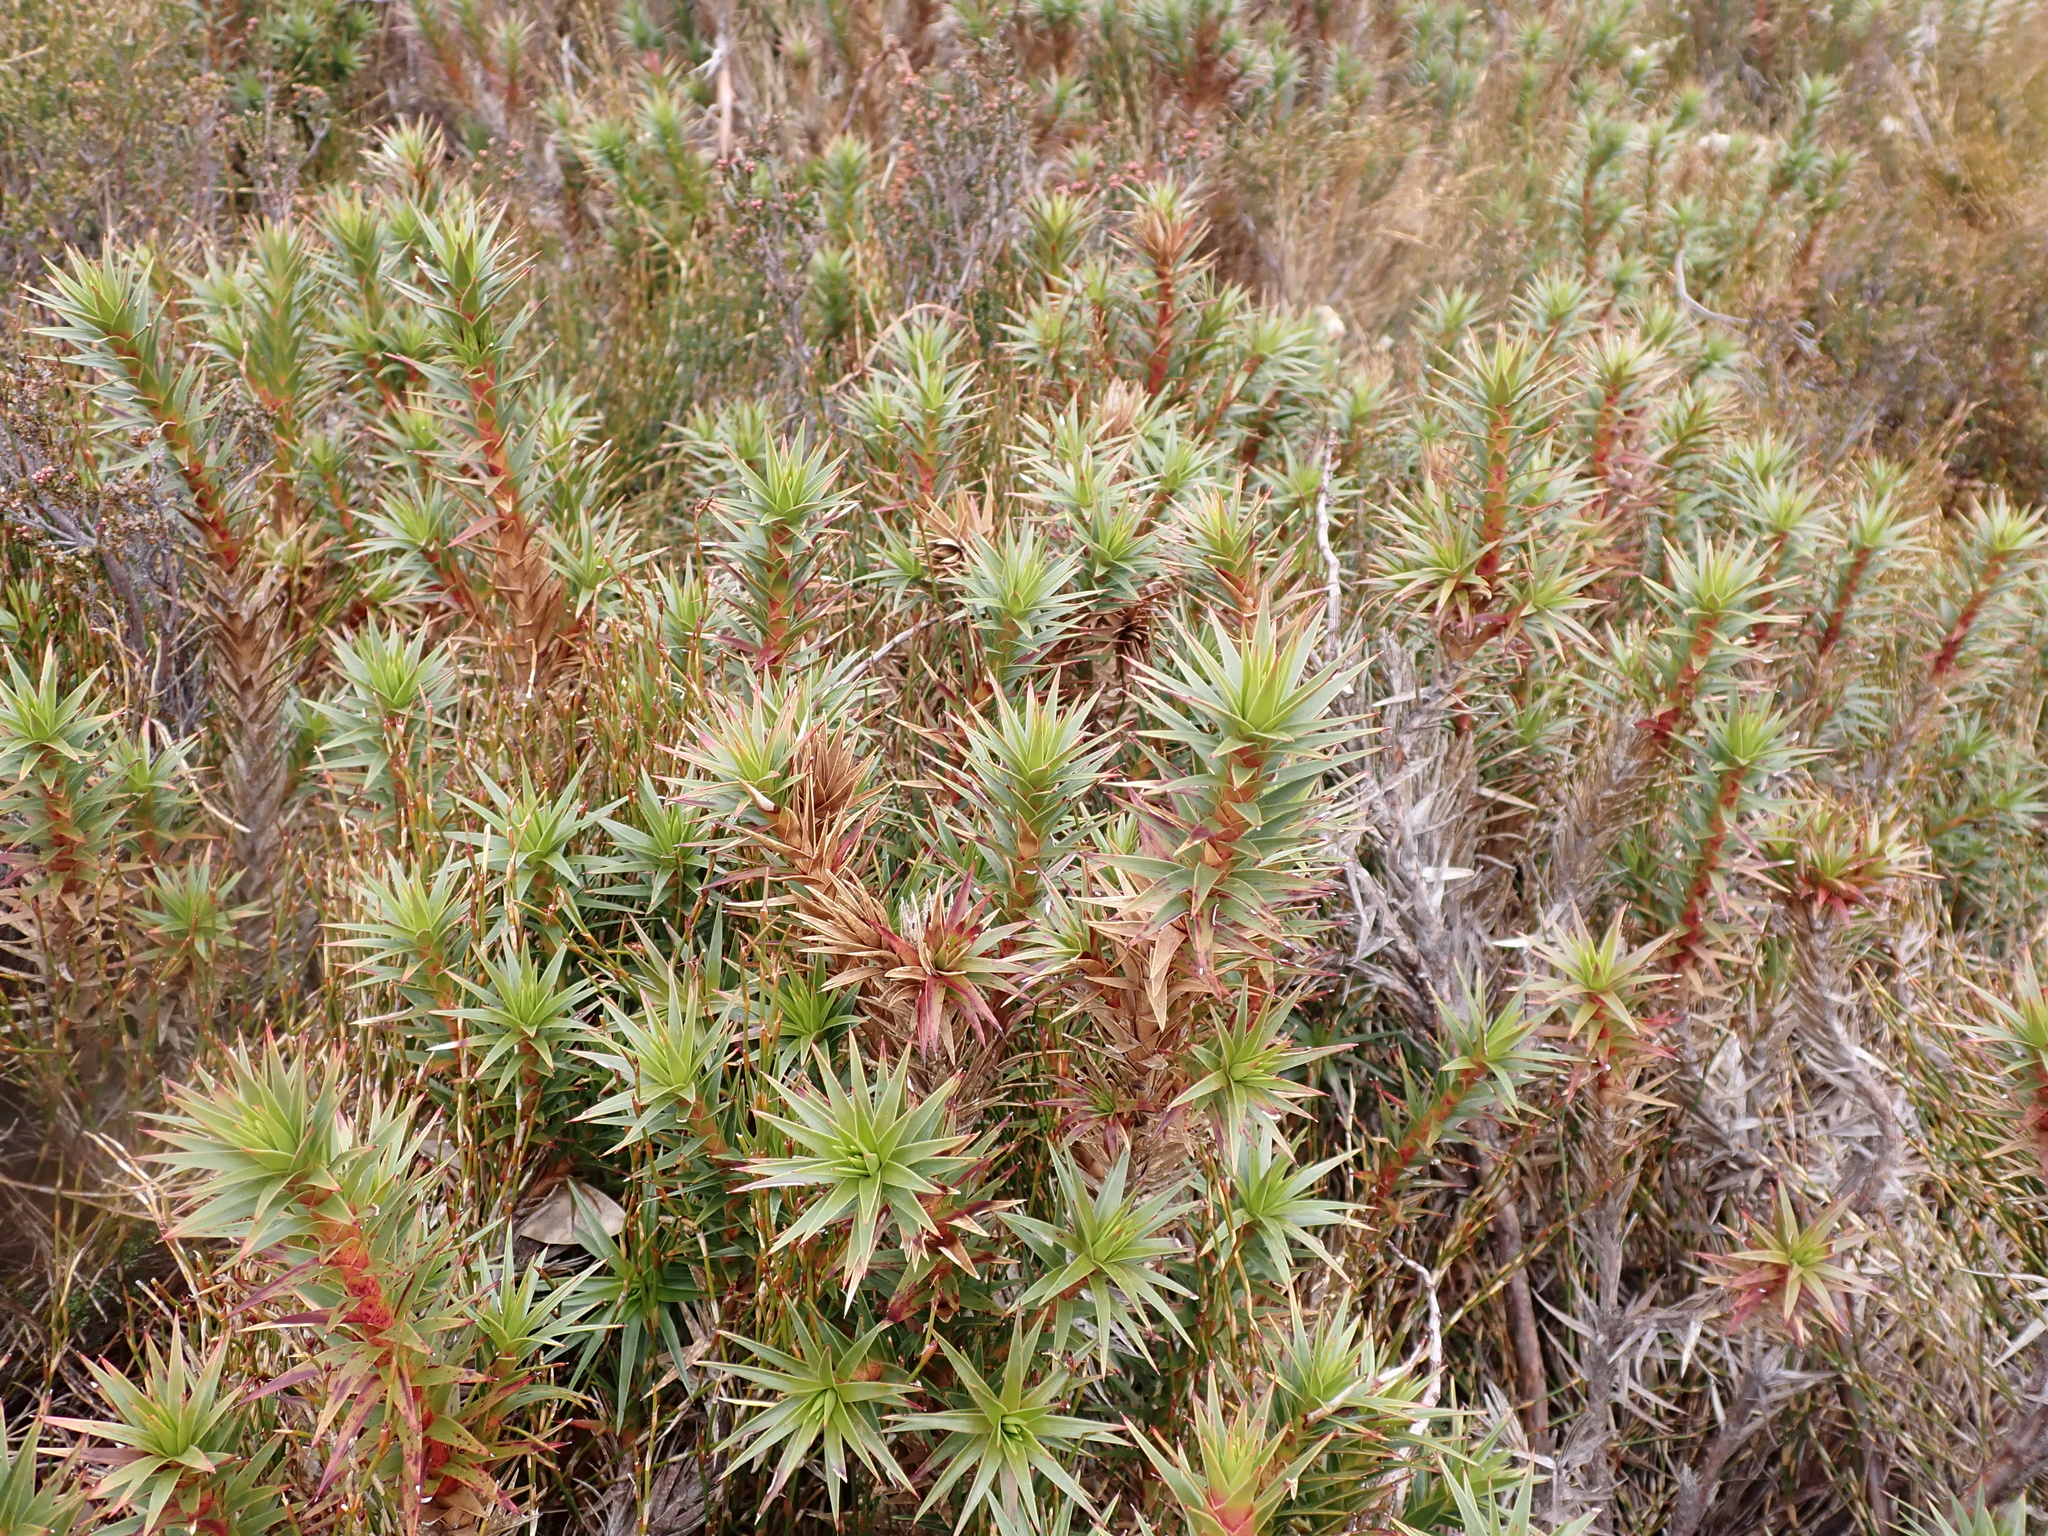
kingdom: Plantae
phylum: Tracheophyta
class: Magnoliopsida
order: Ericales
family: Ericaceae
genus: Dracophyllum
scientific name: Dracophyllum continentis
